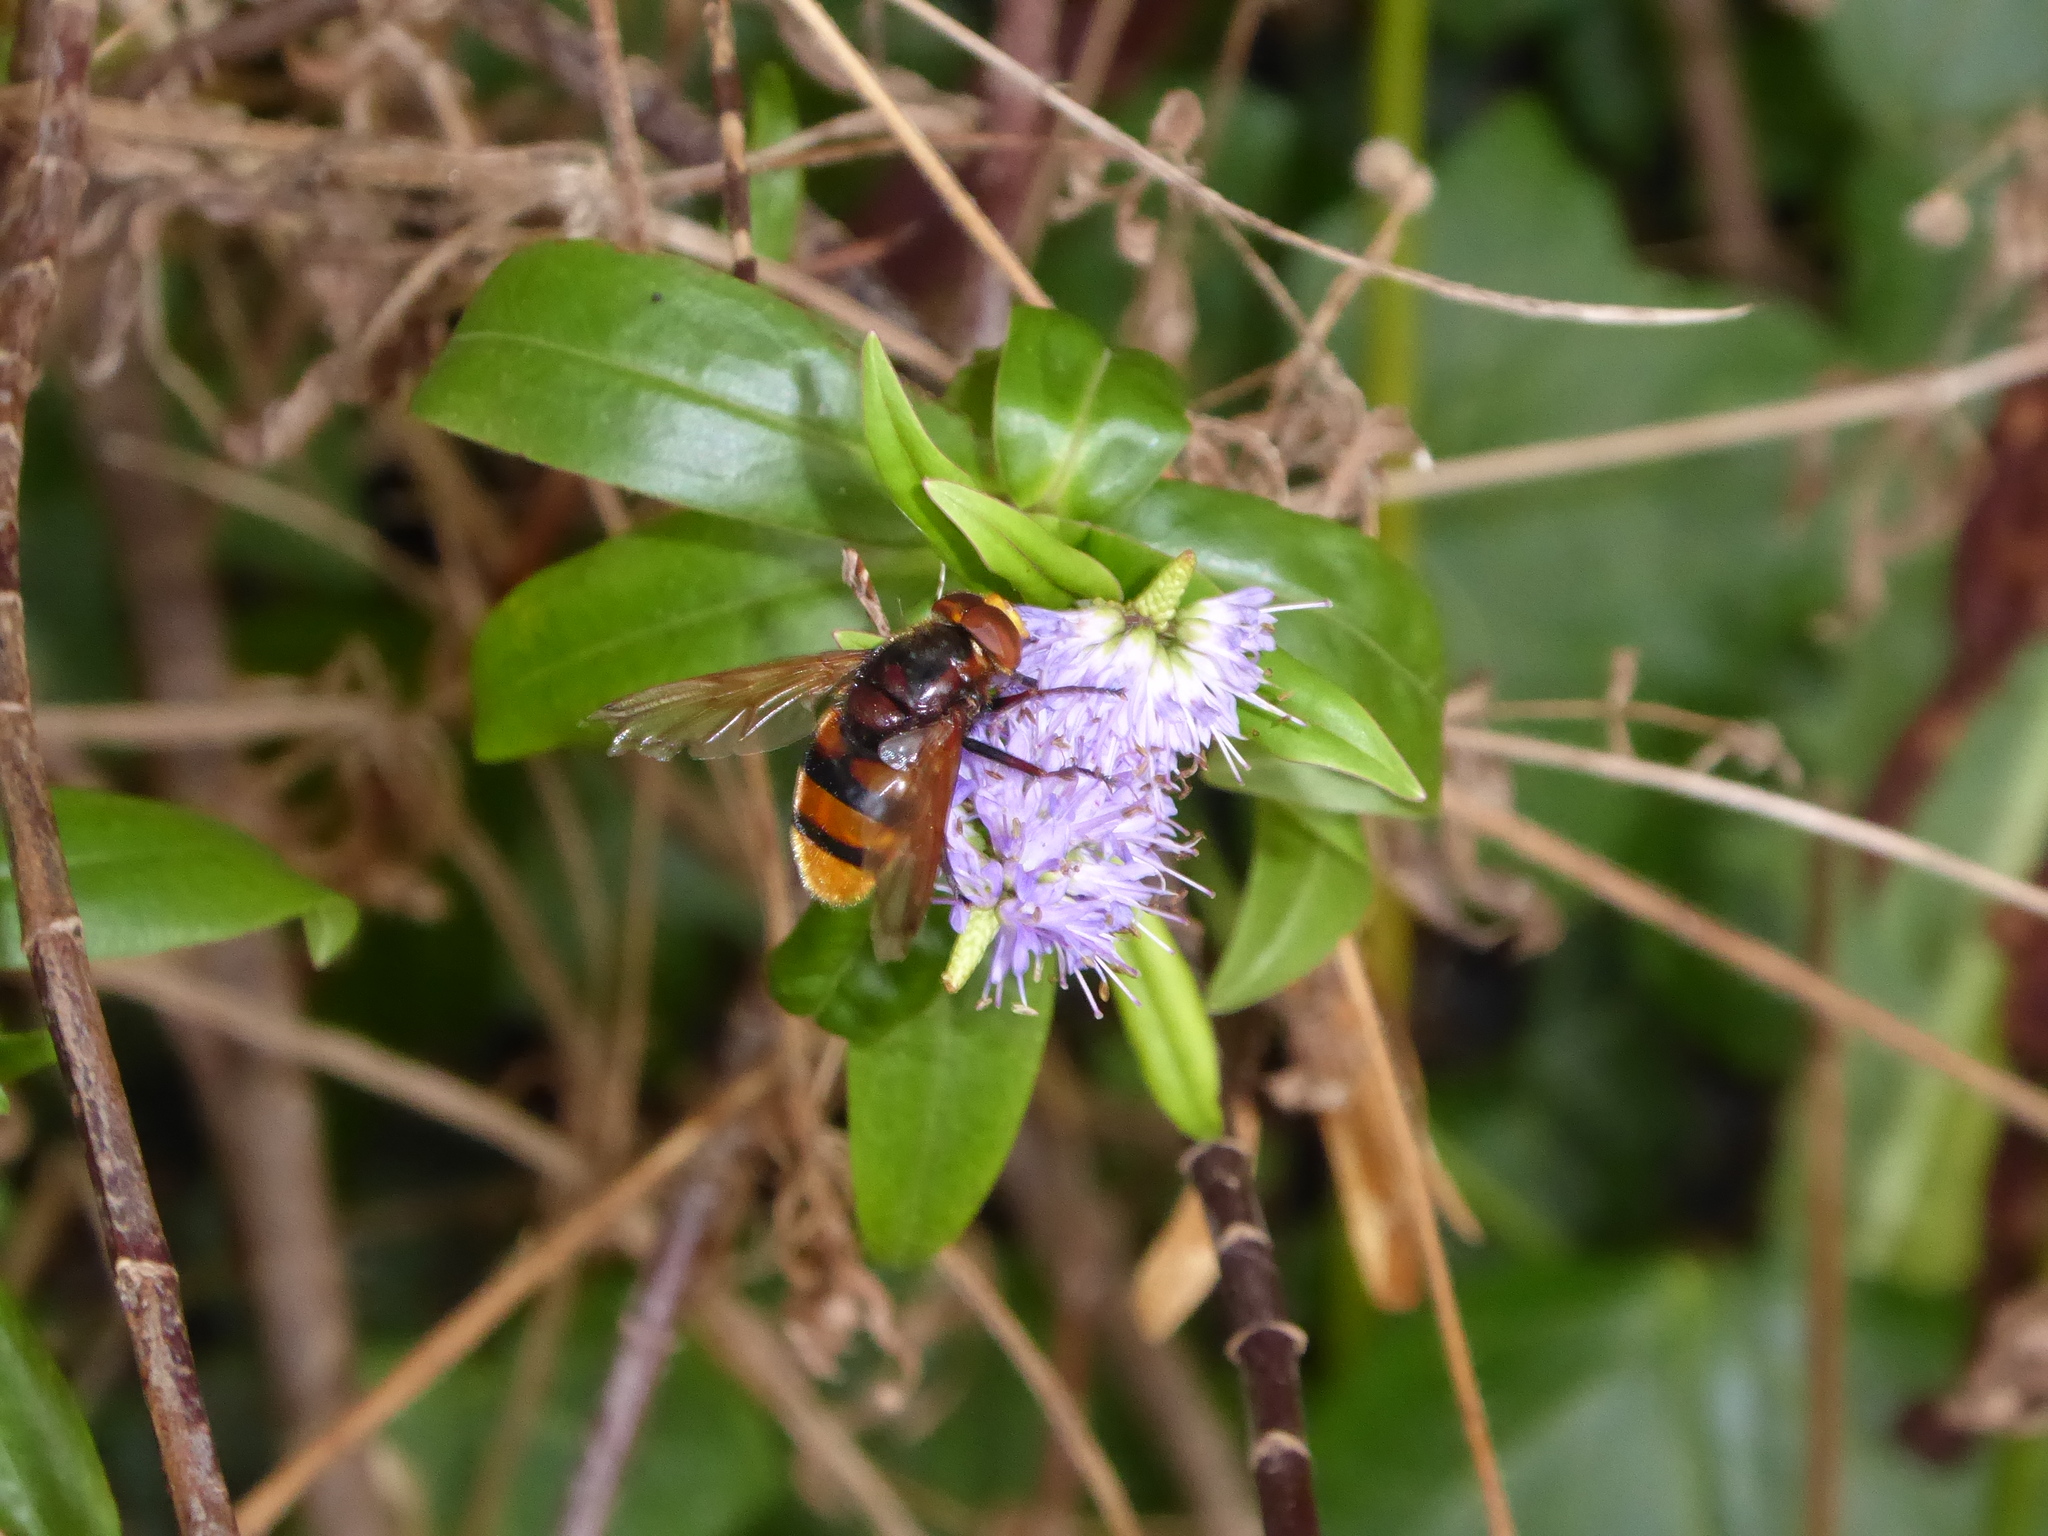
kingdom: Animalia
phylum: Arthropoda
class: Insecta
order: Diptera
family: Syrphidae
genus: Volucella
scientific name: Volucella zonaria
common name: Hornet hoverfly
